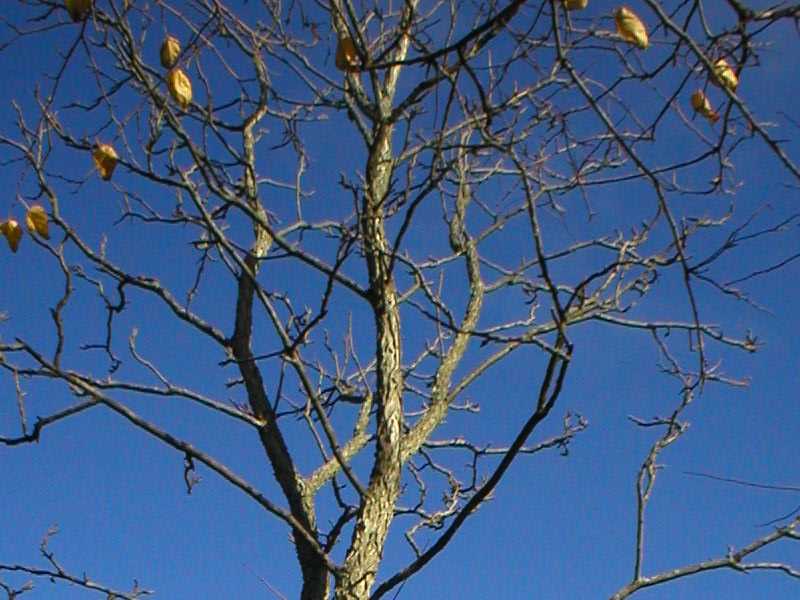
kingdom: Plantae
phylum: Tracheophyta
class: Magnoliopsida
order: Fabales
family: Fabaceae
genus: Gymnocladus
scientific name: Gymnocladus dioicus
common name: Kentucky coffee-tree
